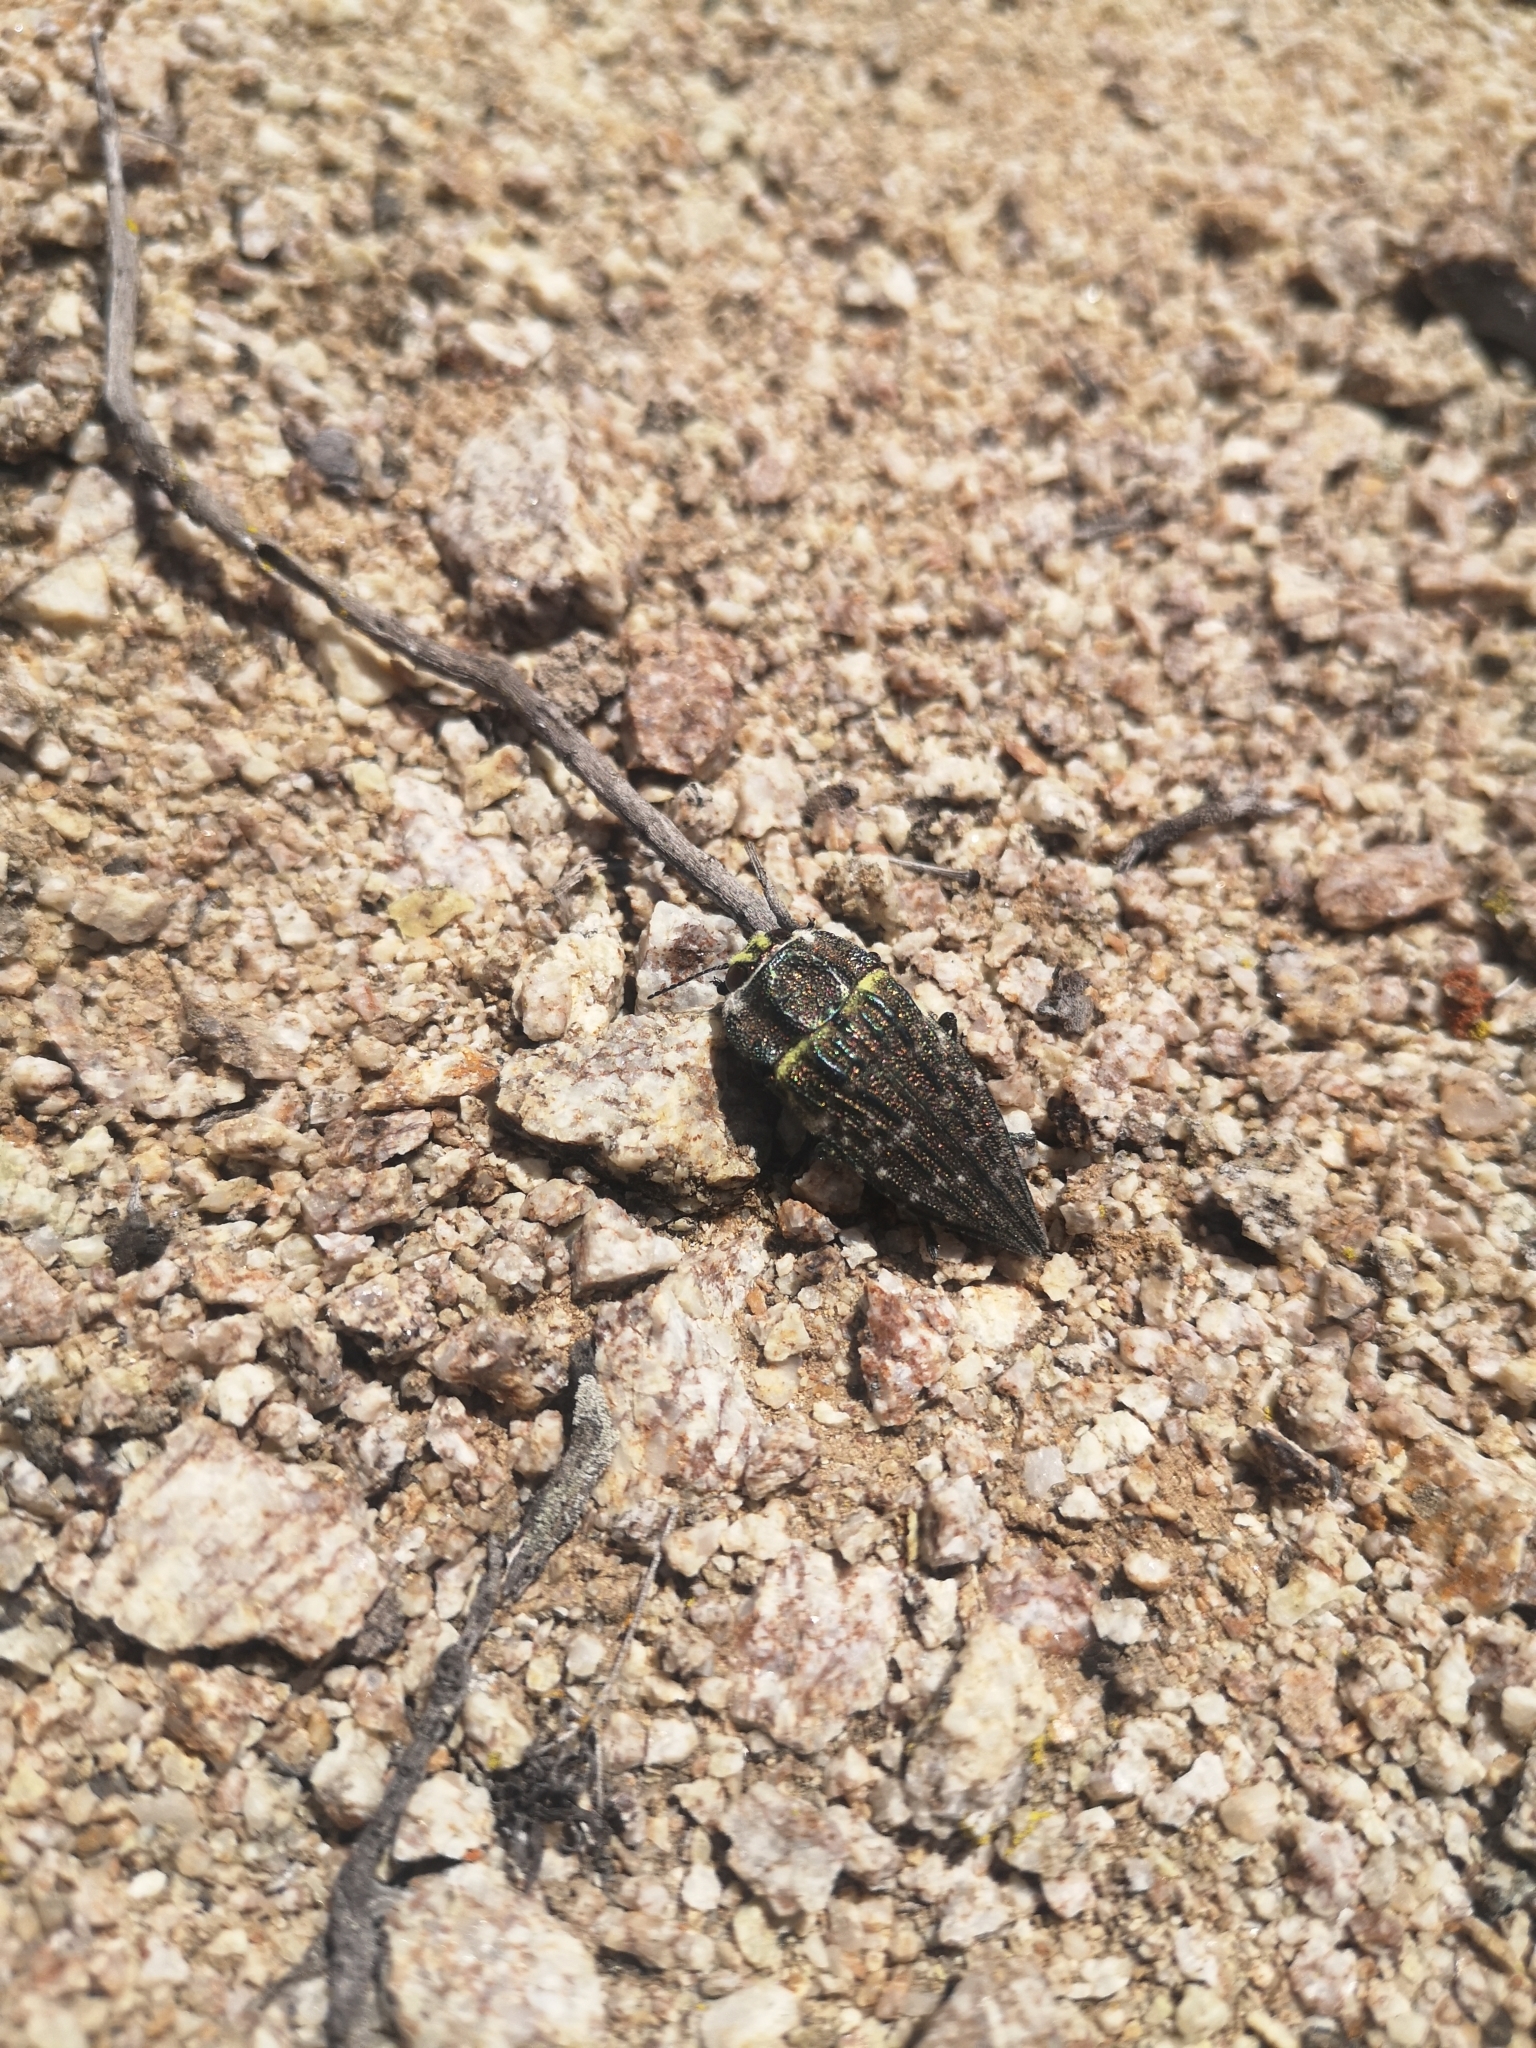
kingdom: Animalia
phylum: Arthropoda
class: Insecta
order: Coleoptera
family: Buprestidae
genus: Ectinogonia
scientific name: Ectinogonia
